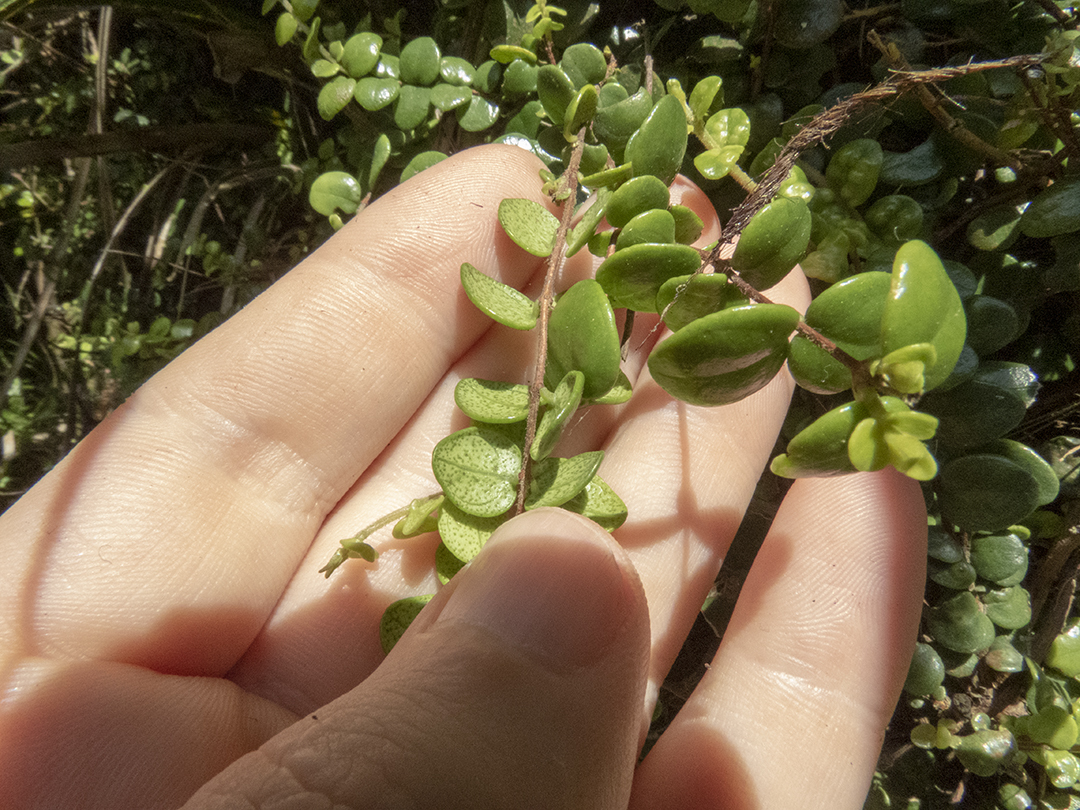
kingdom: Plantae
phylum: Tracheophyta
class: Magnoliopsida
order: Myrtales
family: Myrtaceae
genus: Metrosideros
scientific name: Metrosideros perforata
